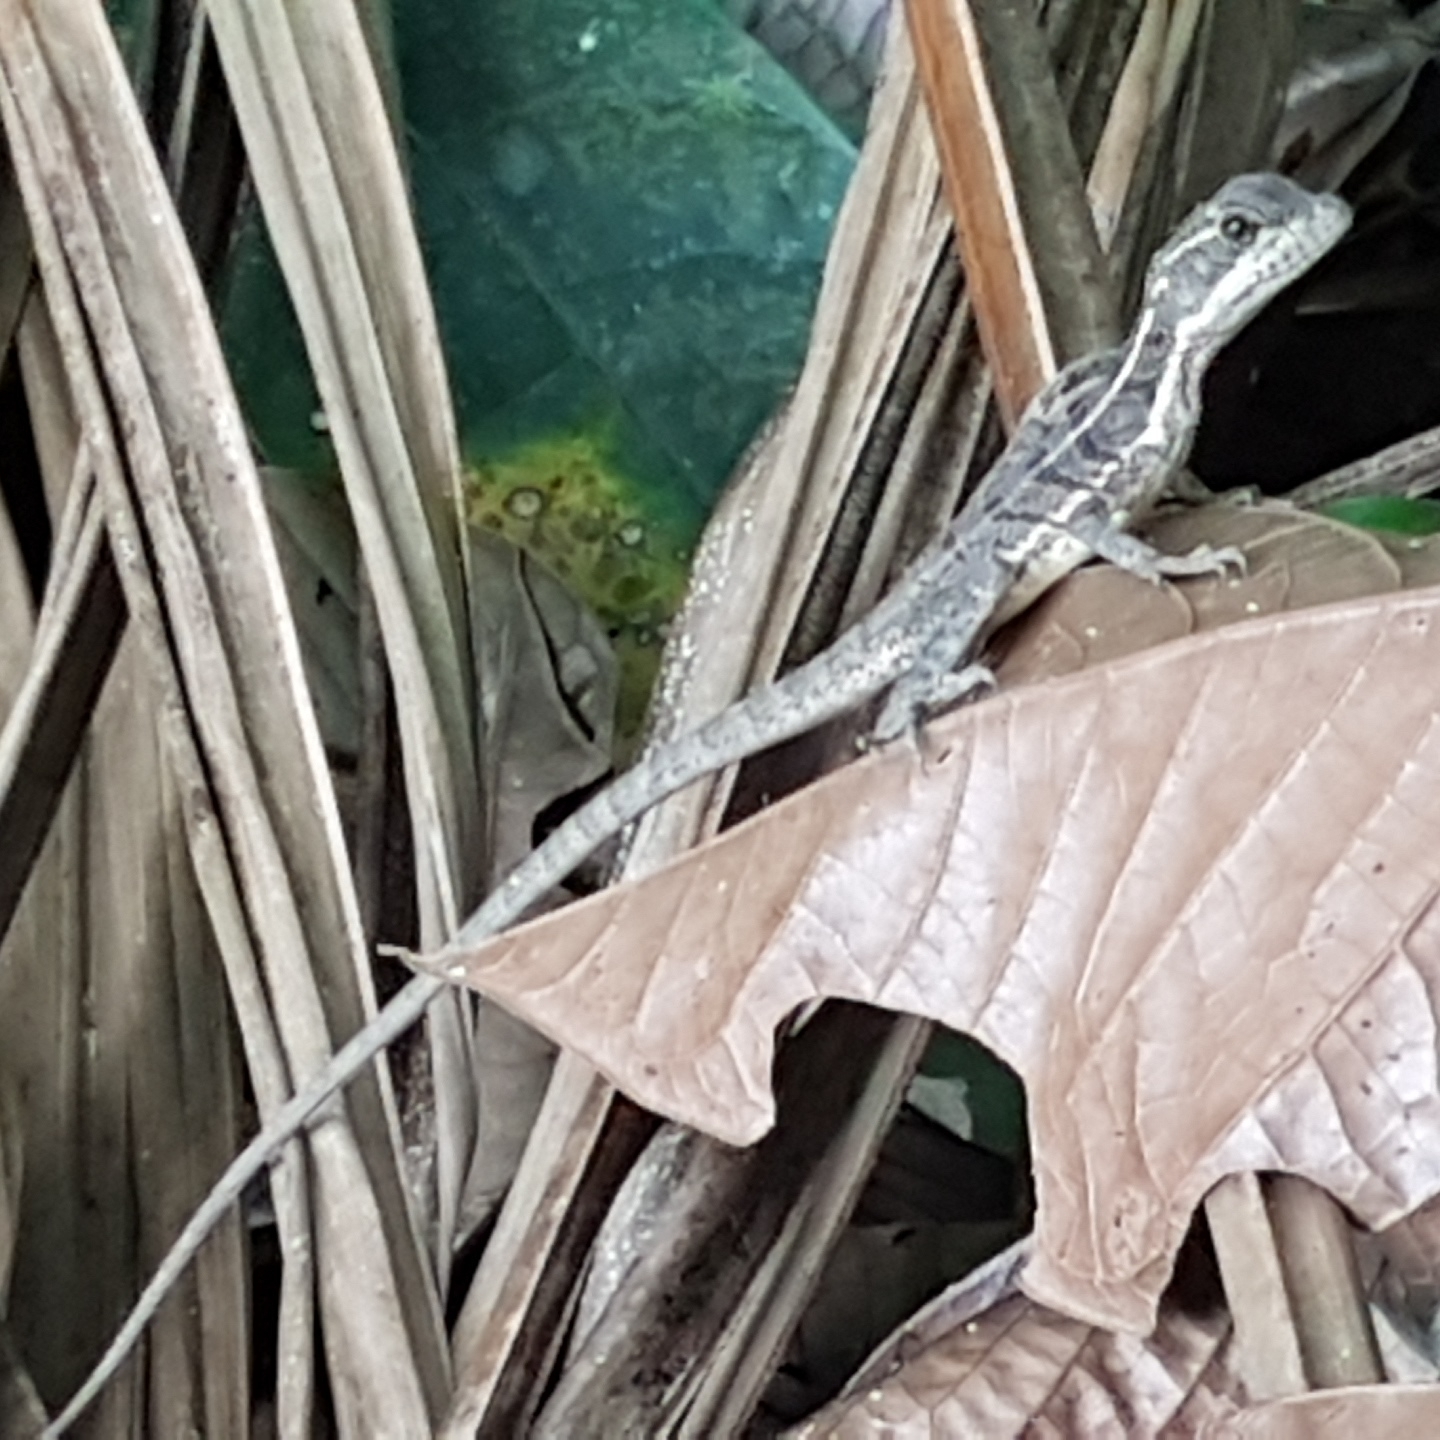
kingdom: Animalia
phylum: Chordata
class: Squamata
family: Corytophanidae
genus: Basiliscus
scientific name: Basiliscus basiliscus
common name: Common basilisk
